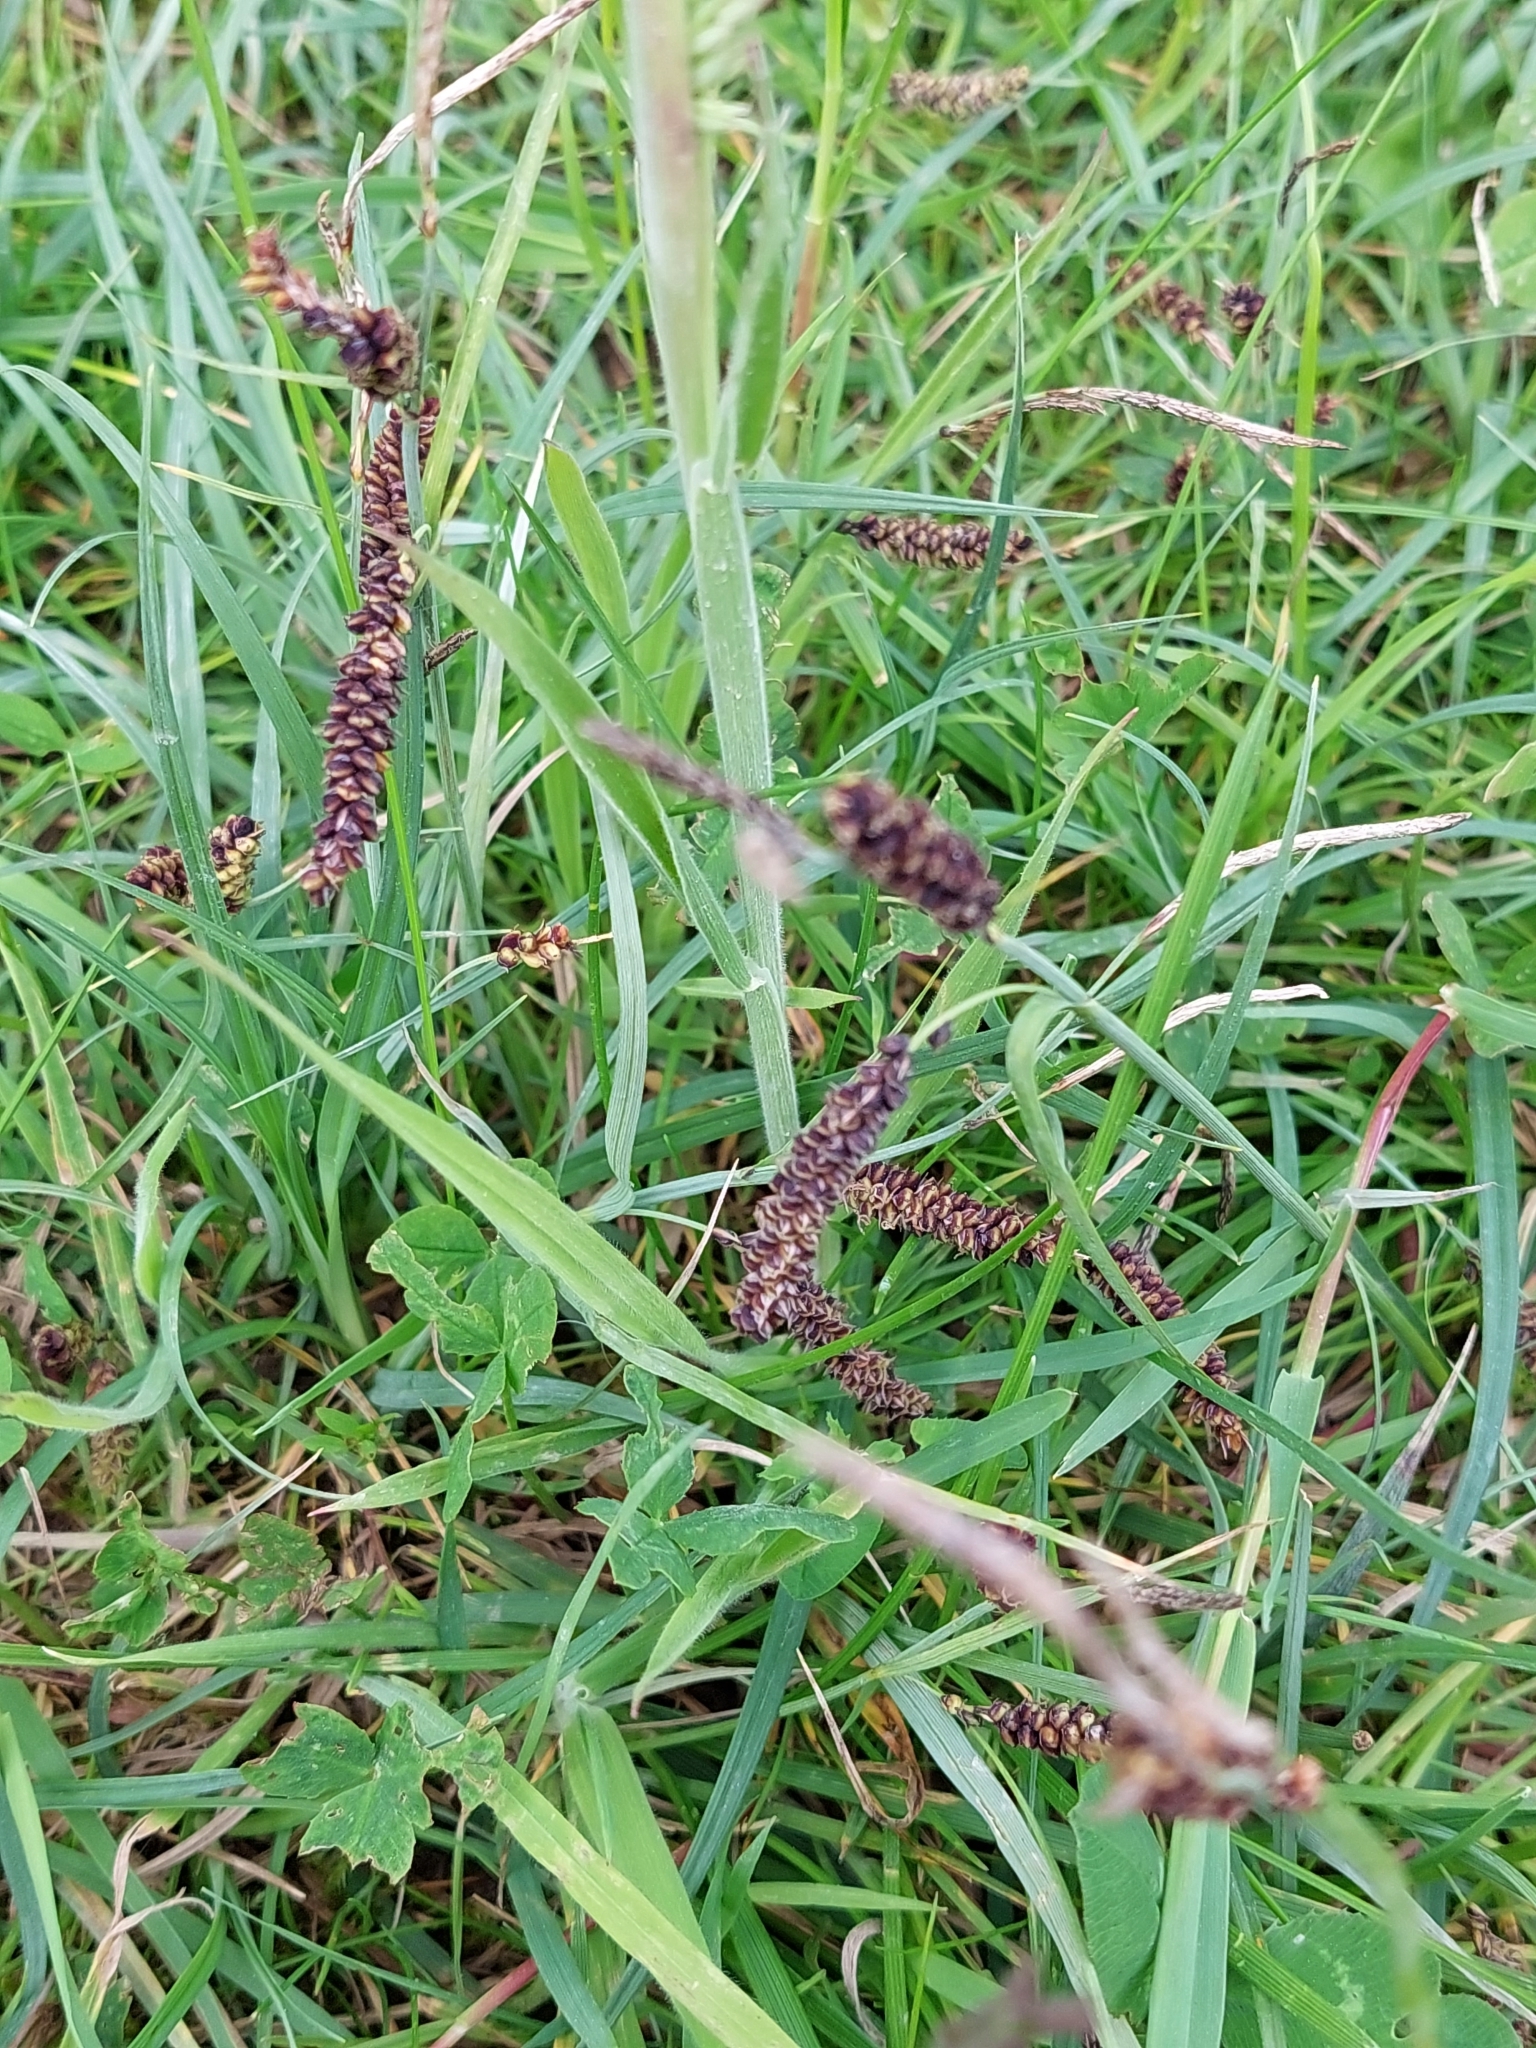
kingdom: Plantae
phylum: Tracheophyta
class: Liliopsida
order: Poales
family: Cyperaceae
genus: Carex
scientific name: Carex flacca
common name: Glaucous sedge
